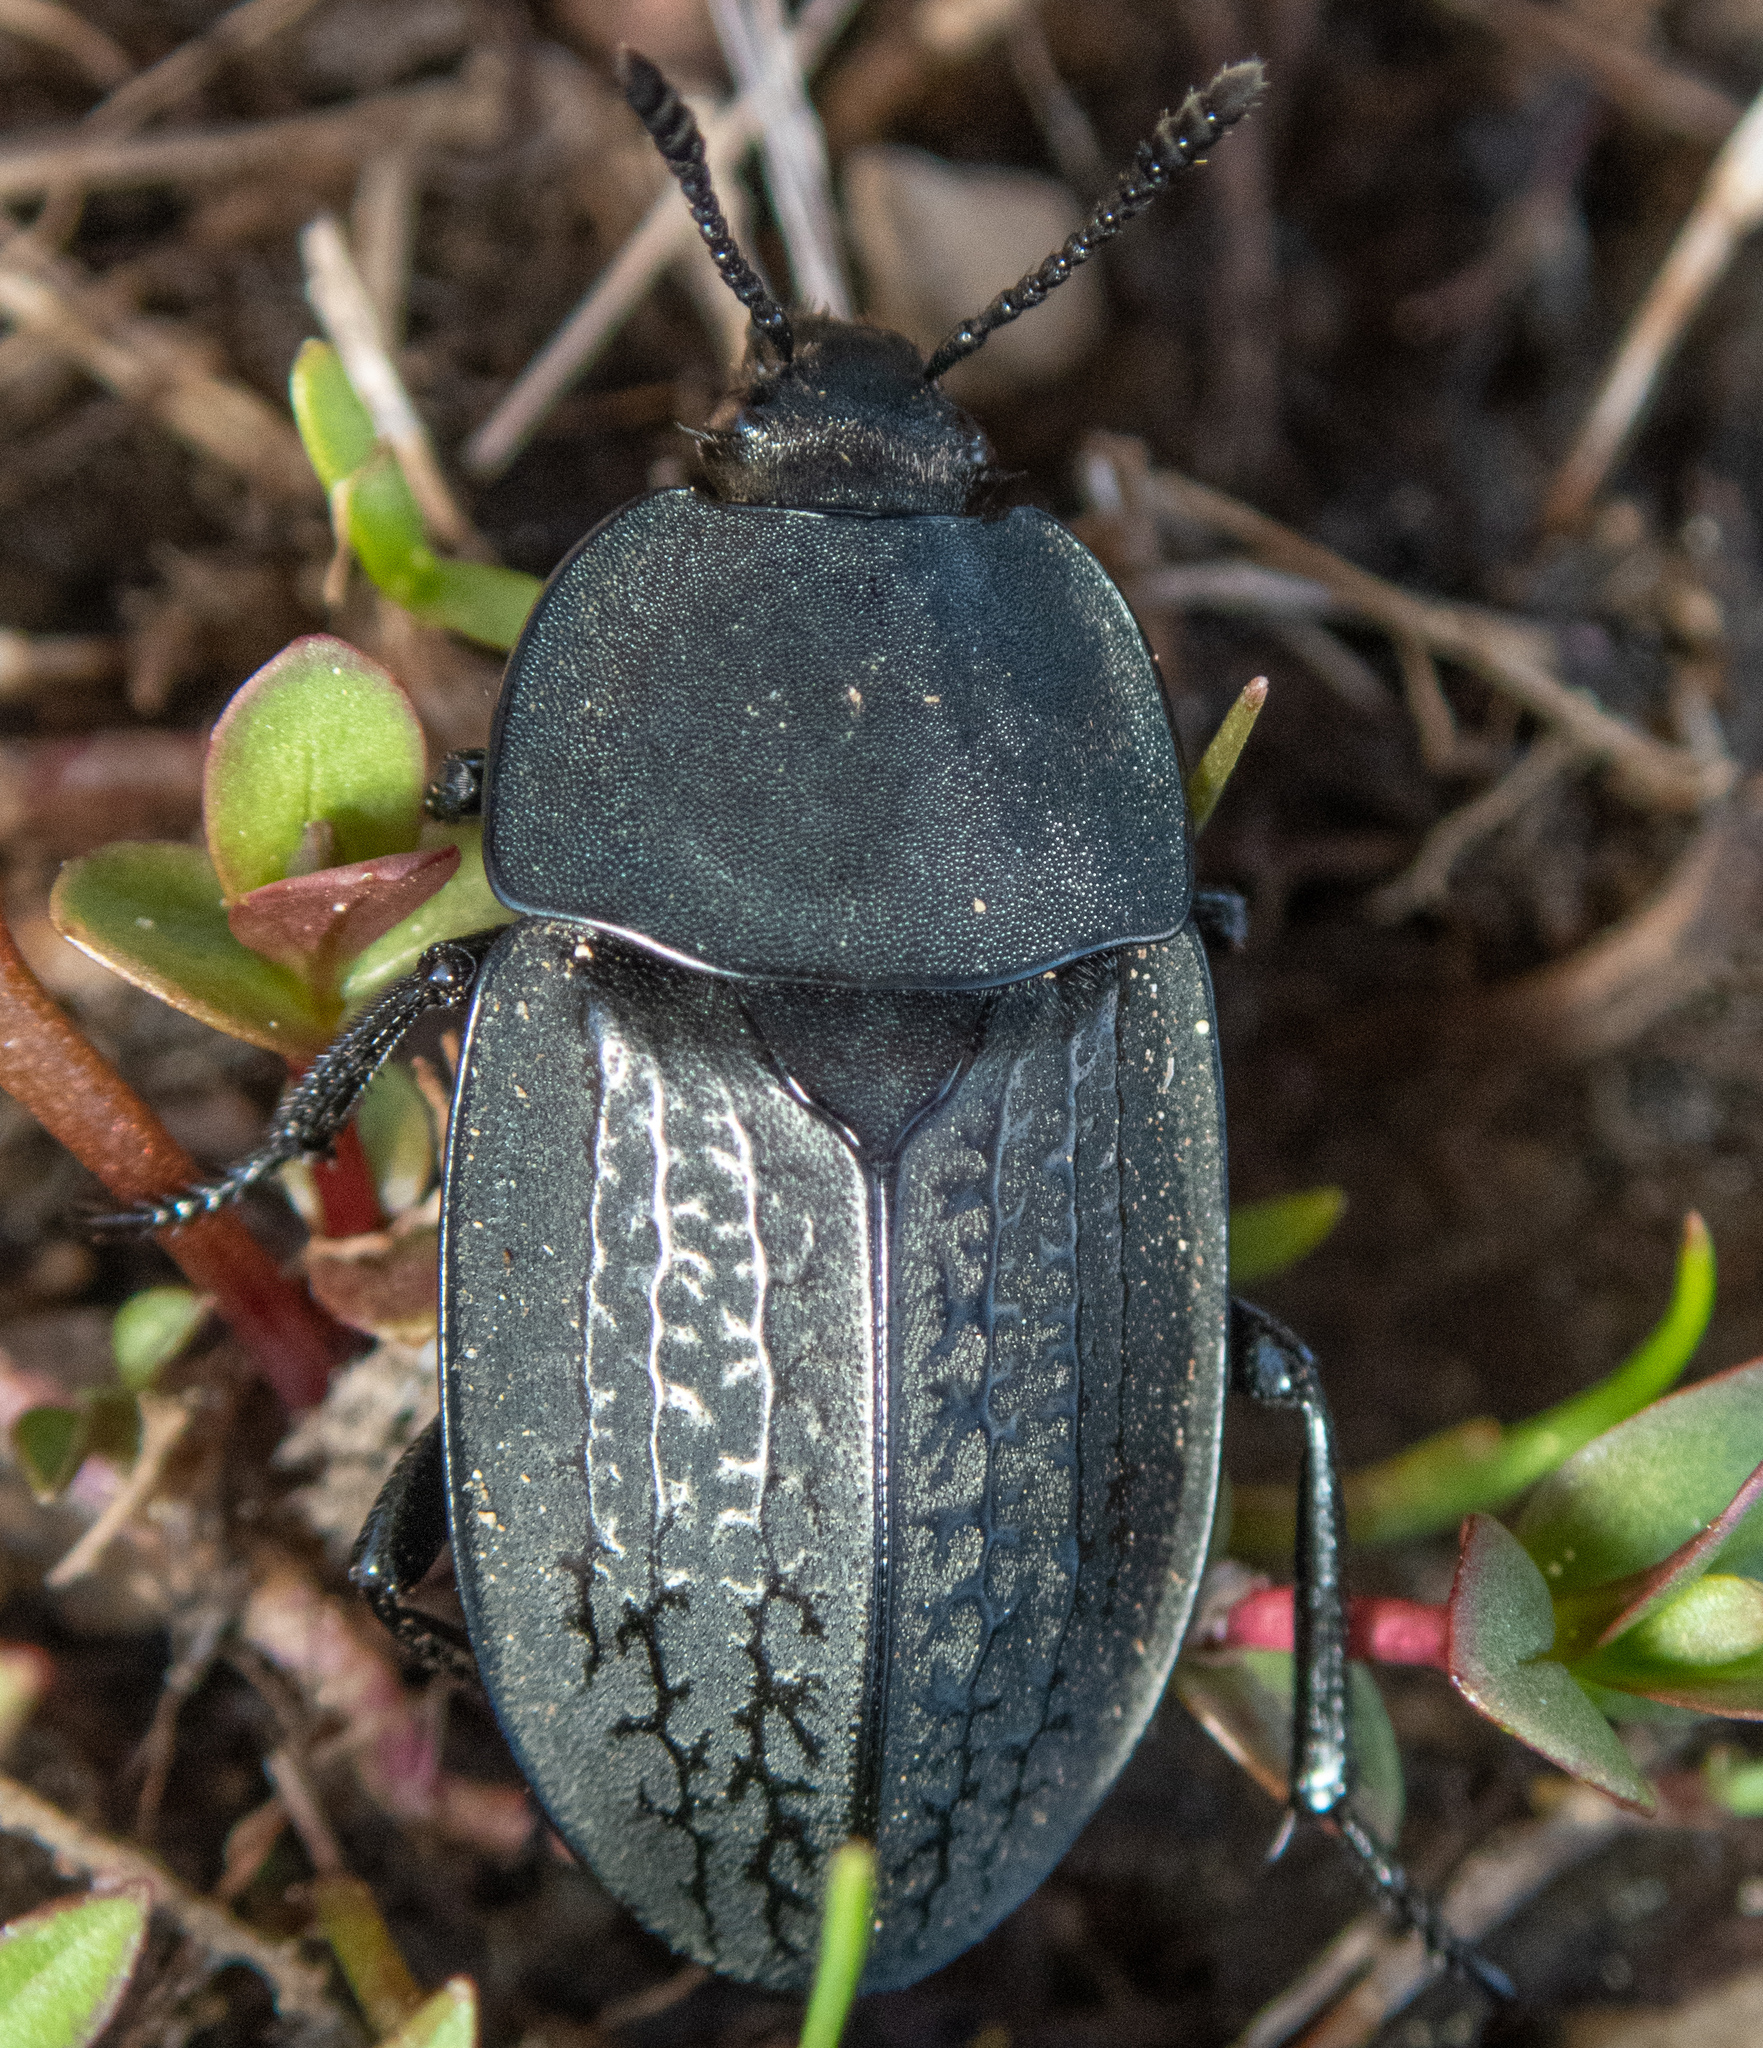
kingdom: Animalia
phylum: Arthropoda
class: Insecta
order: Coleoptera
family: Staphylinidae
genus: Heterosilpha
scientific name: Heterosilpha ramosa
